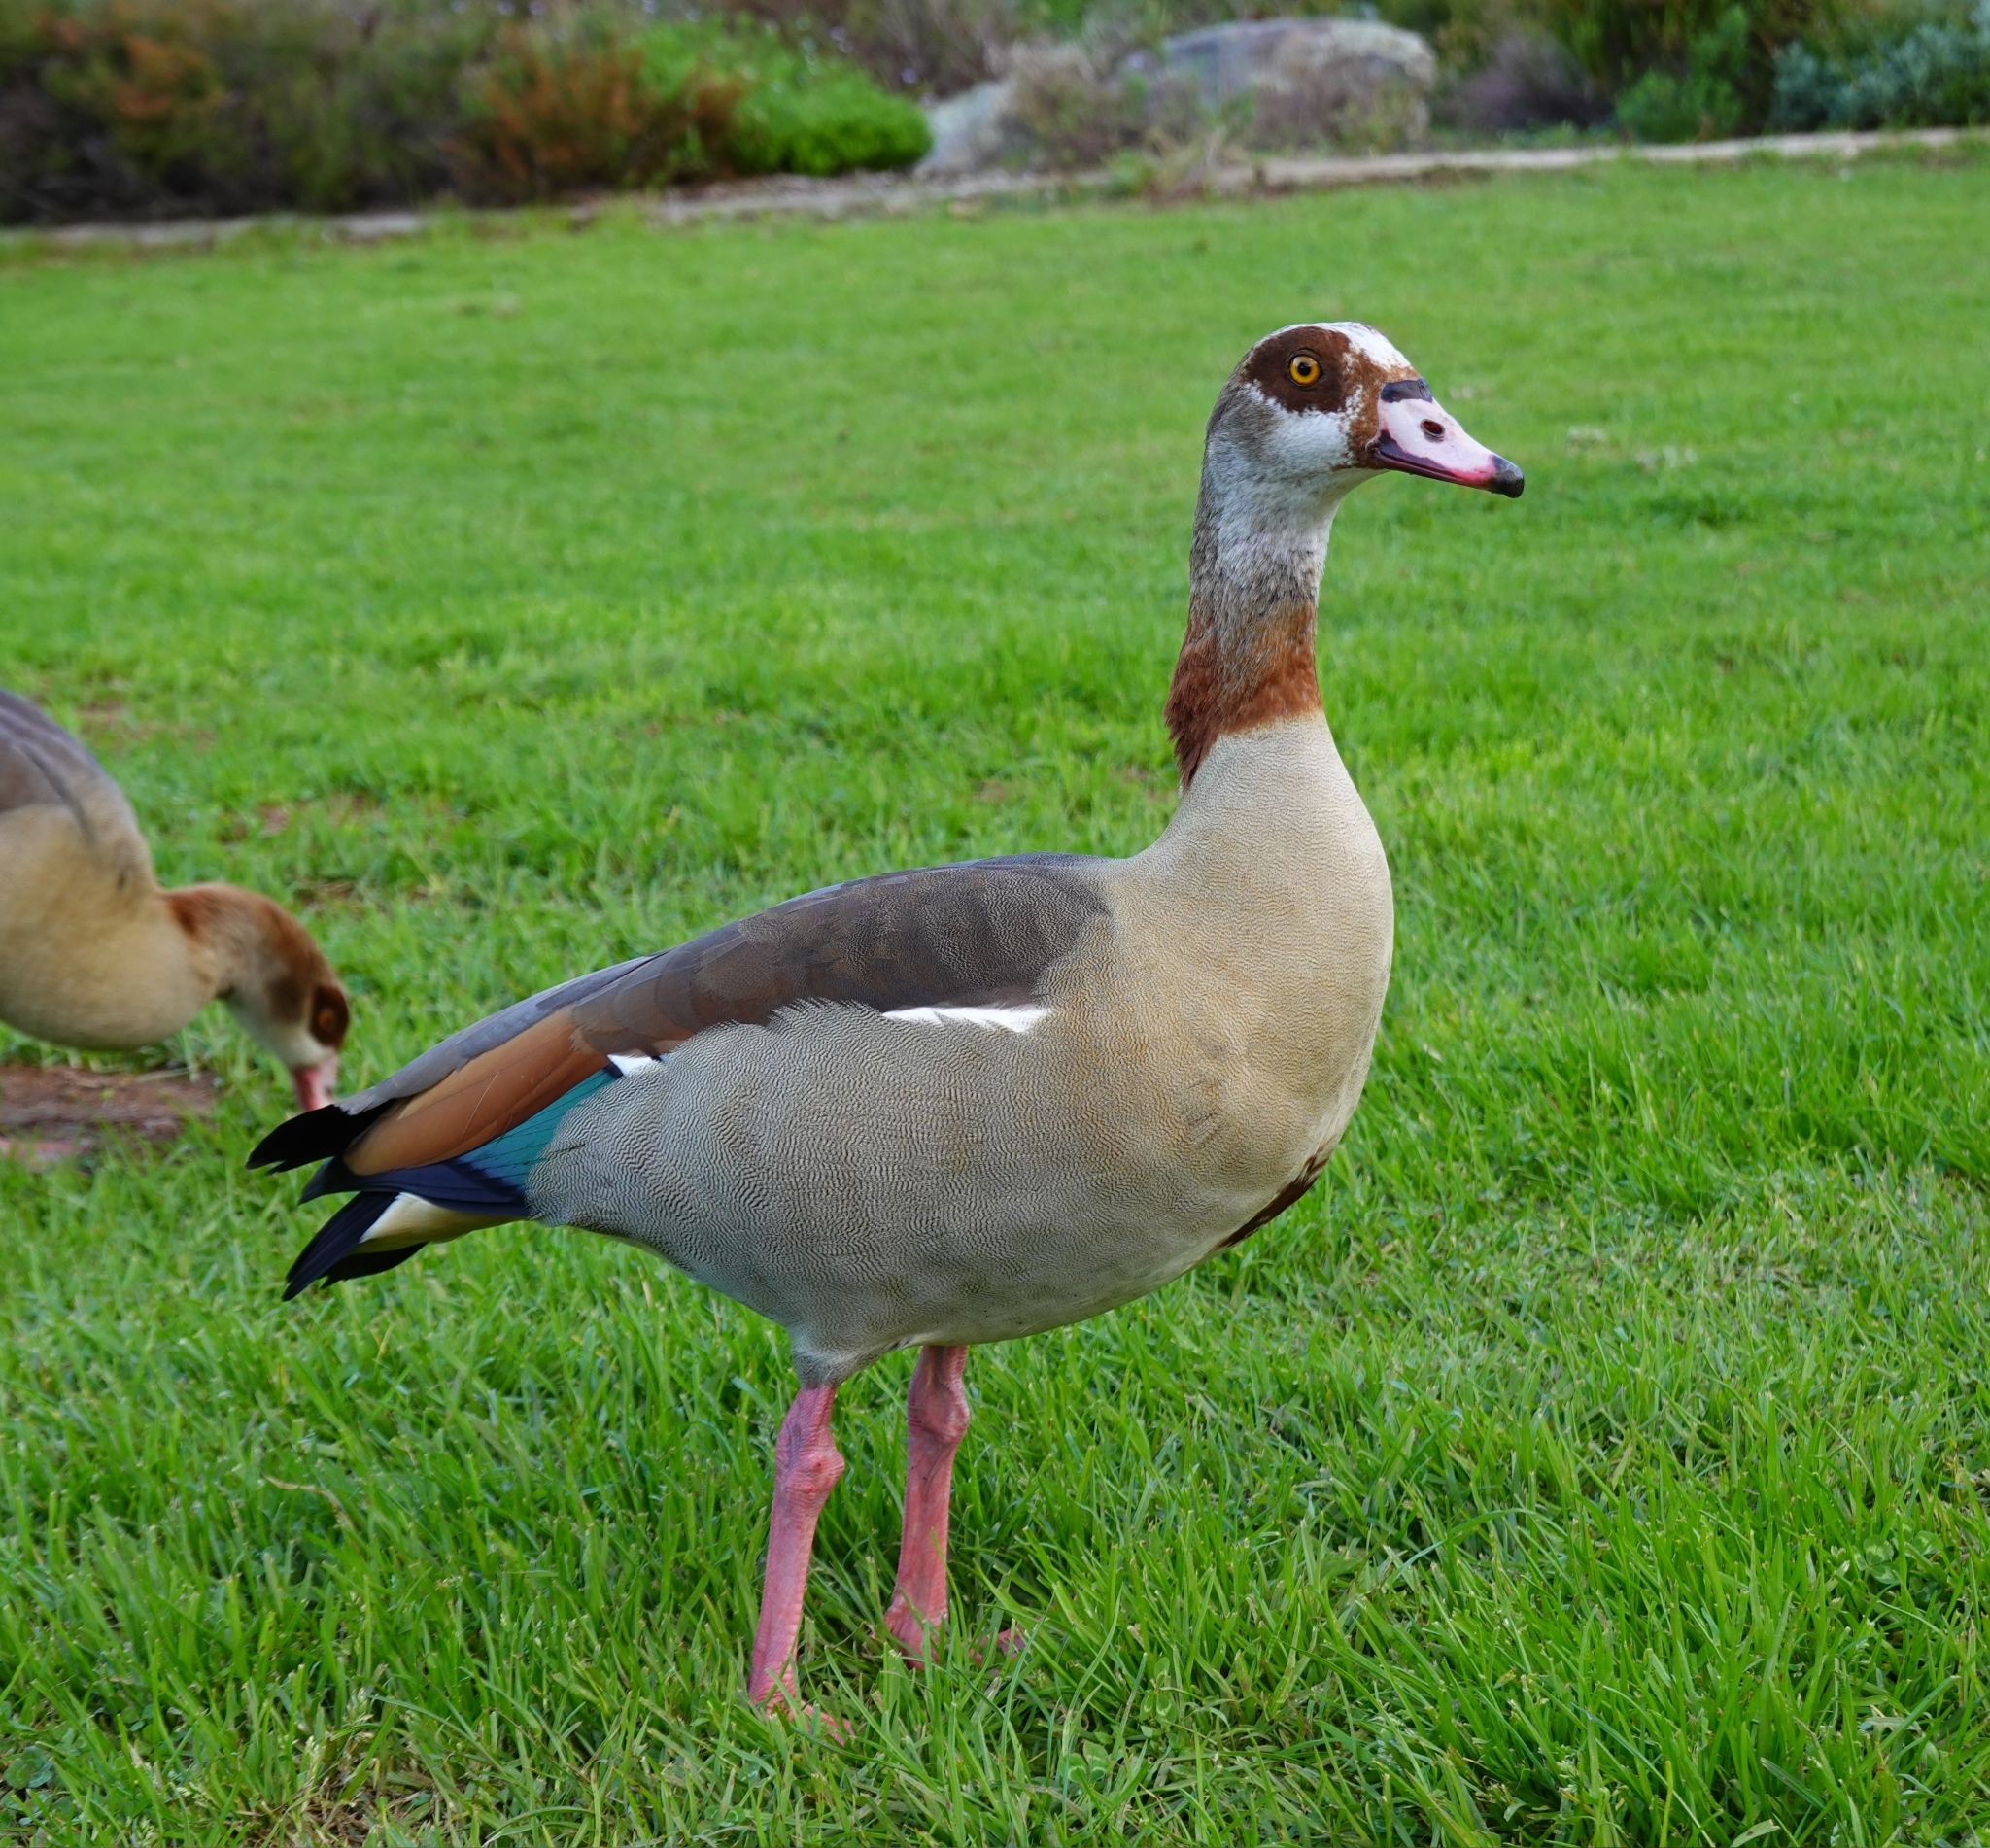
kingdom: Animalia
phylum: Chordata
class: Aves
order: Anseriformes
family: Anatidae
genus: Alopochen
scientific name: Alopochen aegyptiaca
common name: Egyptian goose
